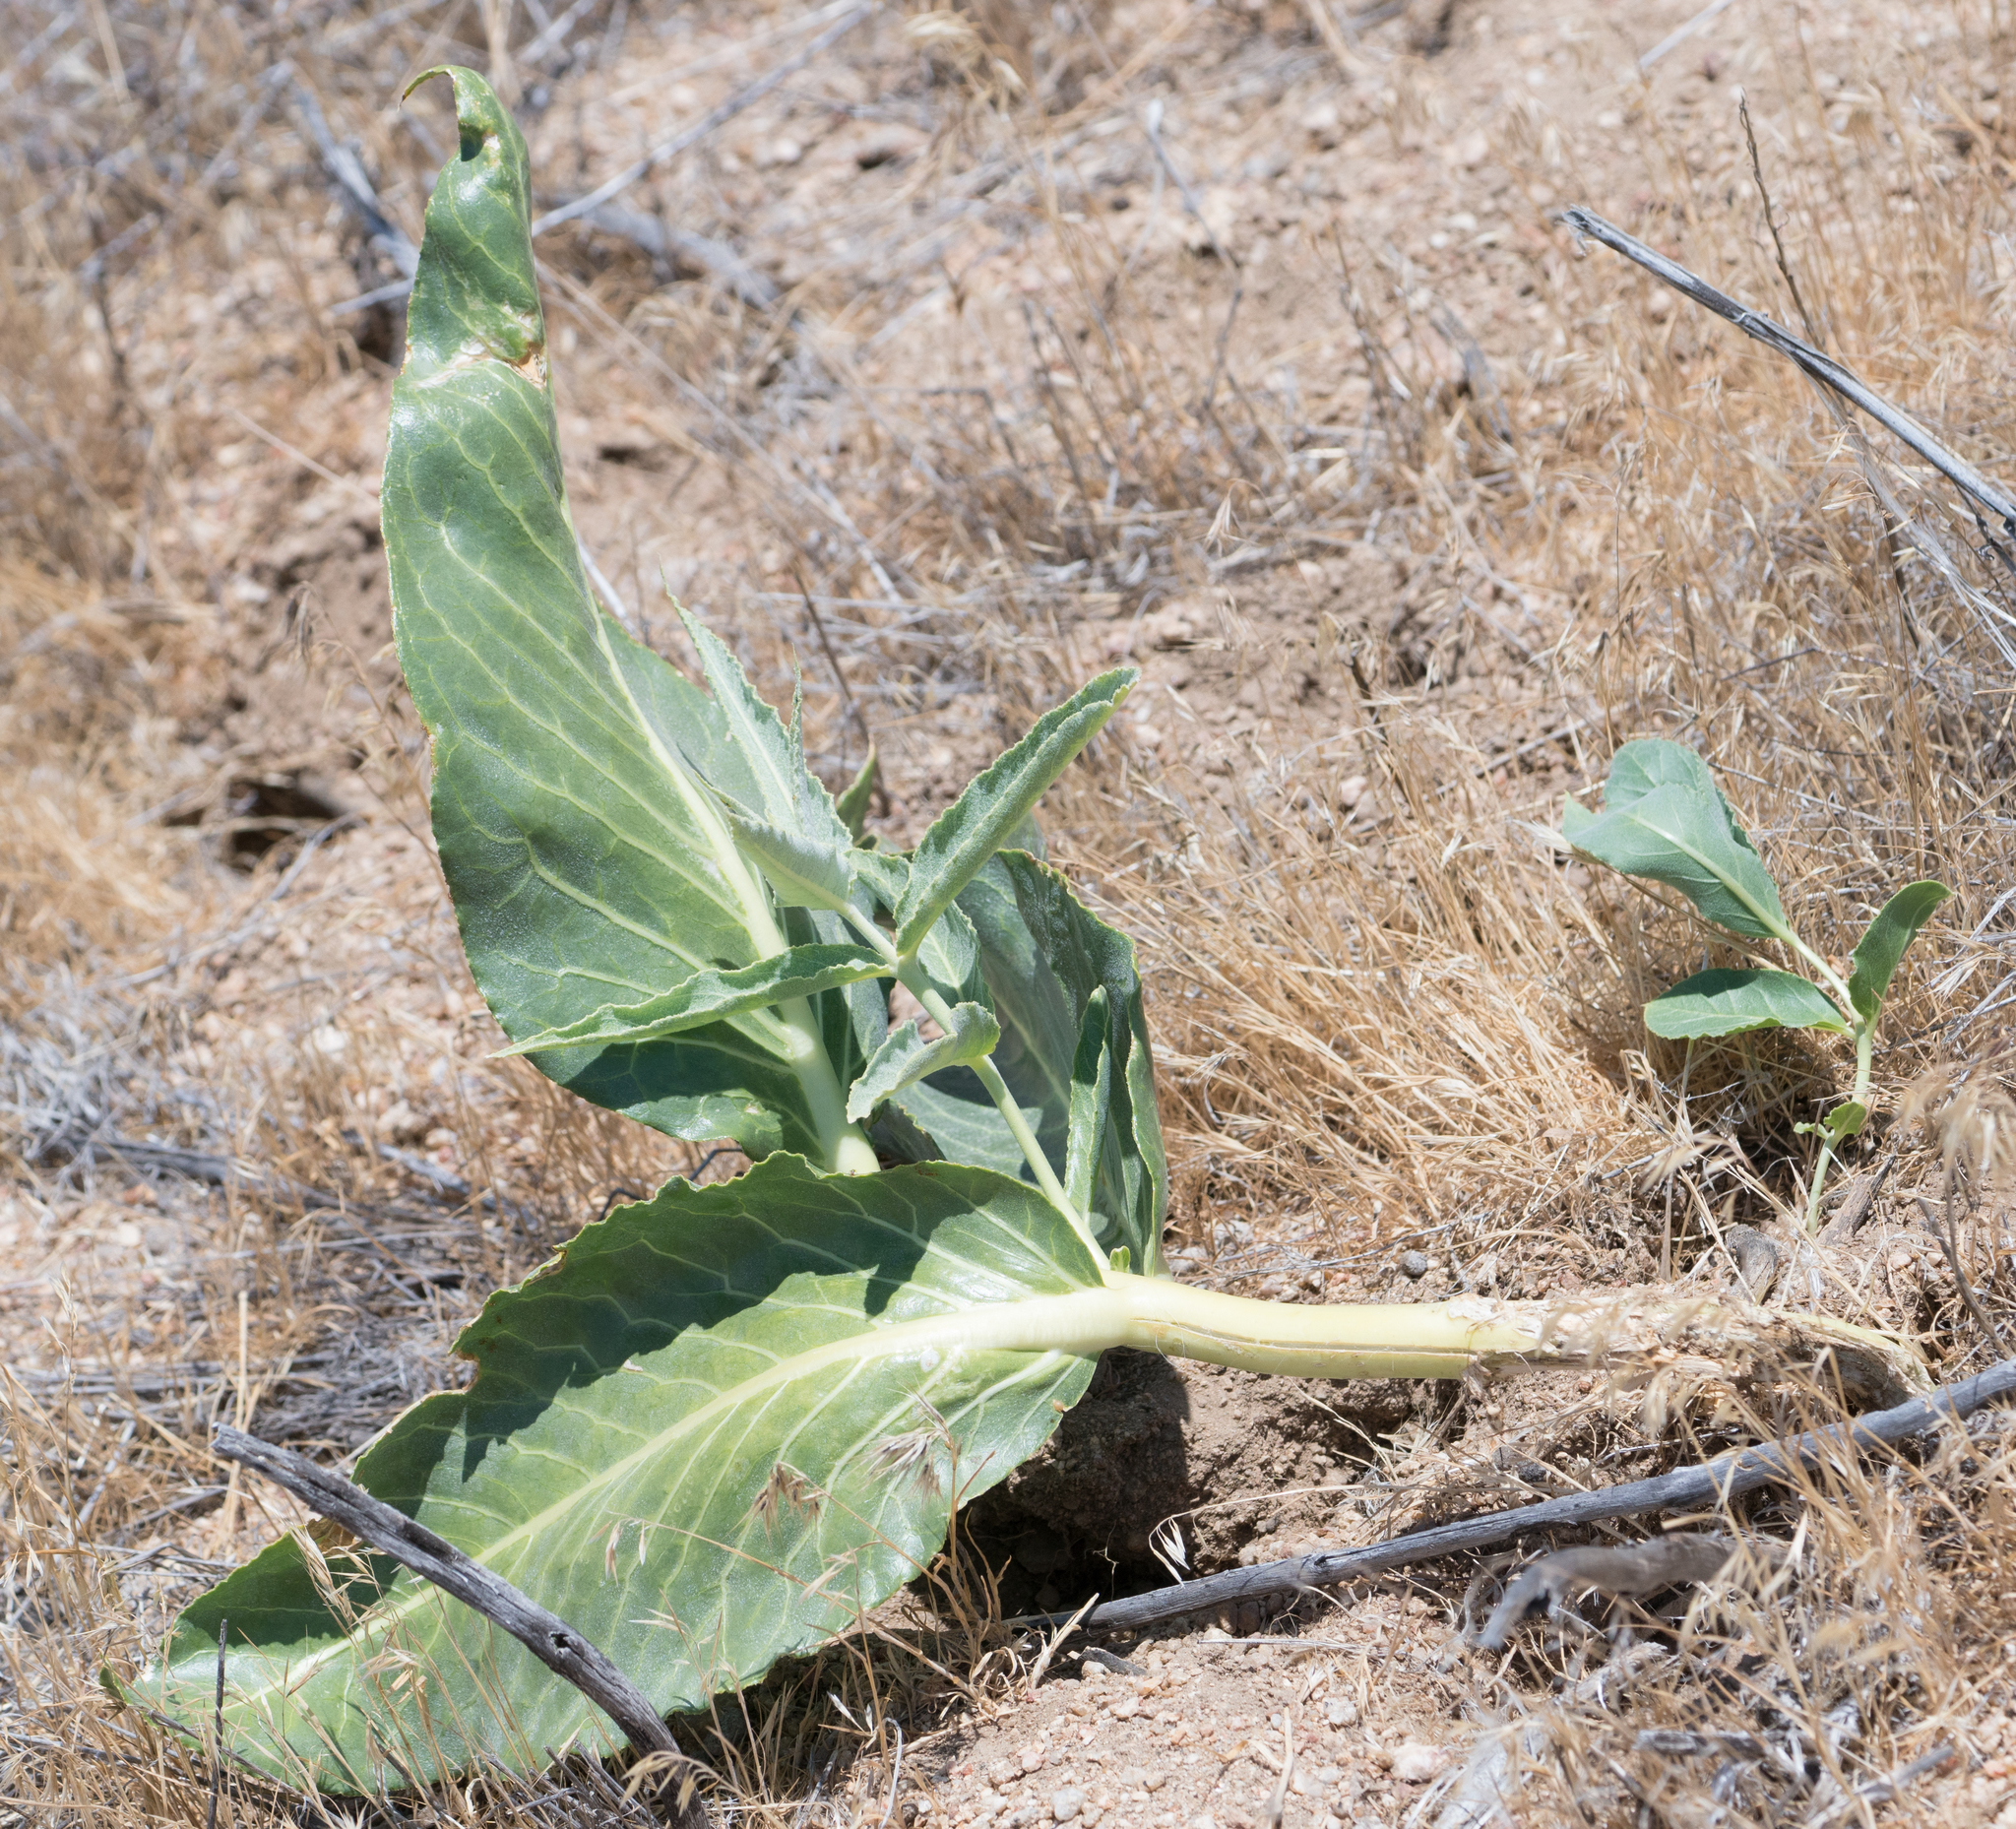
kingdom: Plantae
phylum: Tracheophyta
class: Magnoliopsida
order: Gentianales
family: Apocynaceae
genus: Asclepias
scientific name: Asclepias erosa
